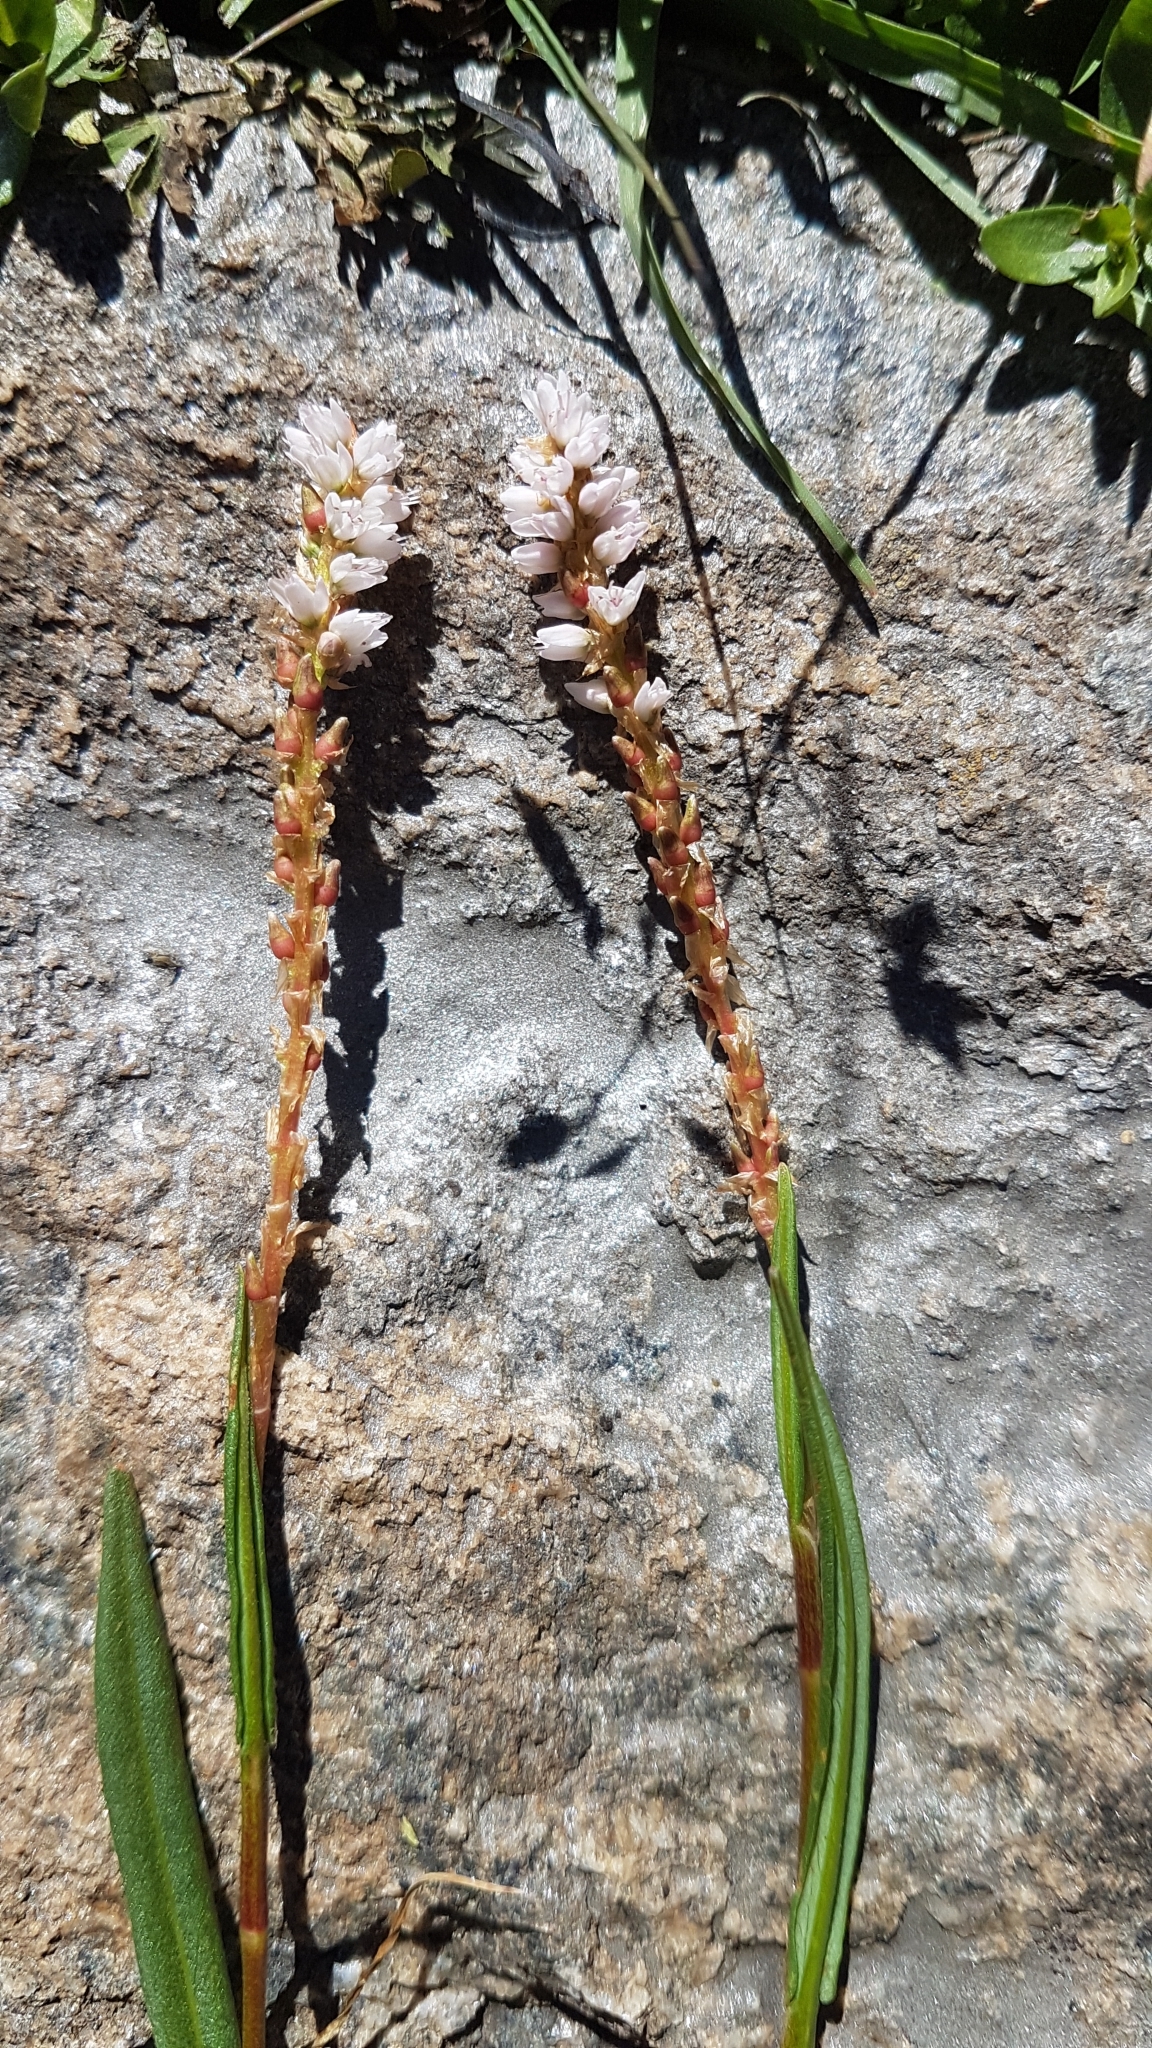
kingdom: Plantae
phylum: Tracheophyta
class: Magnoliopsida
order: Caryophyllales
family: Polygonaceae
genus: Bistorta
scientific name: Bistorta vivipara
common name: Alpine bistort
